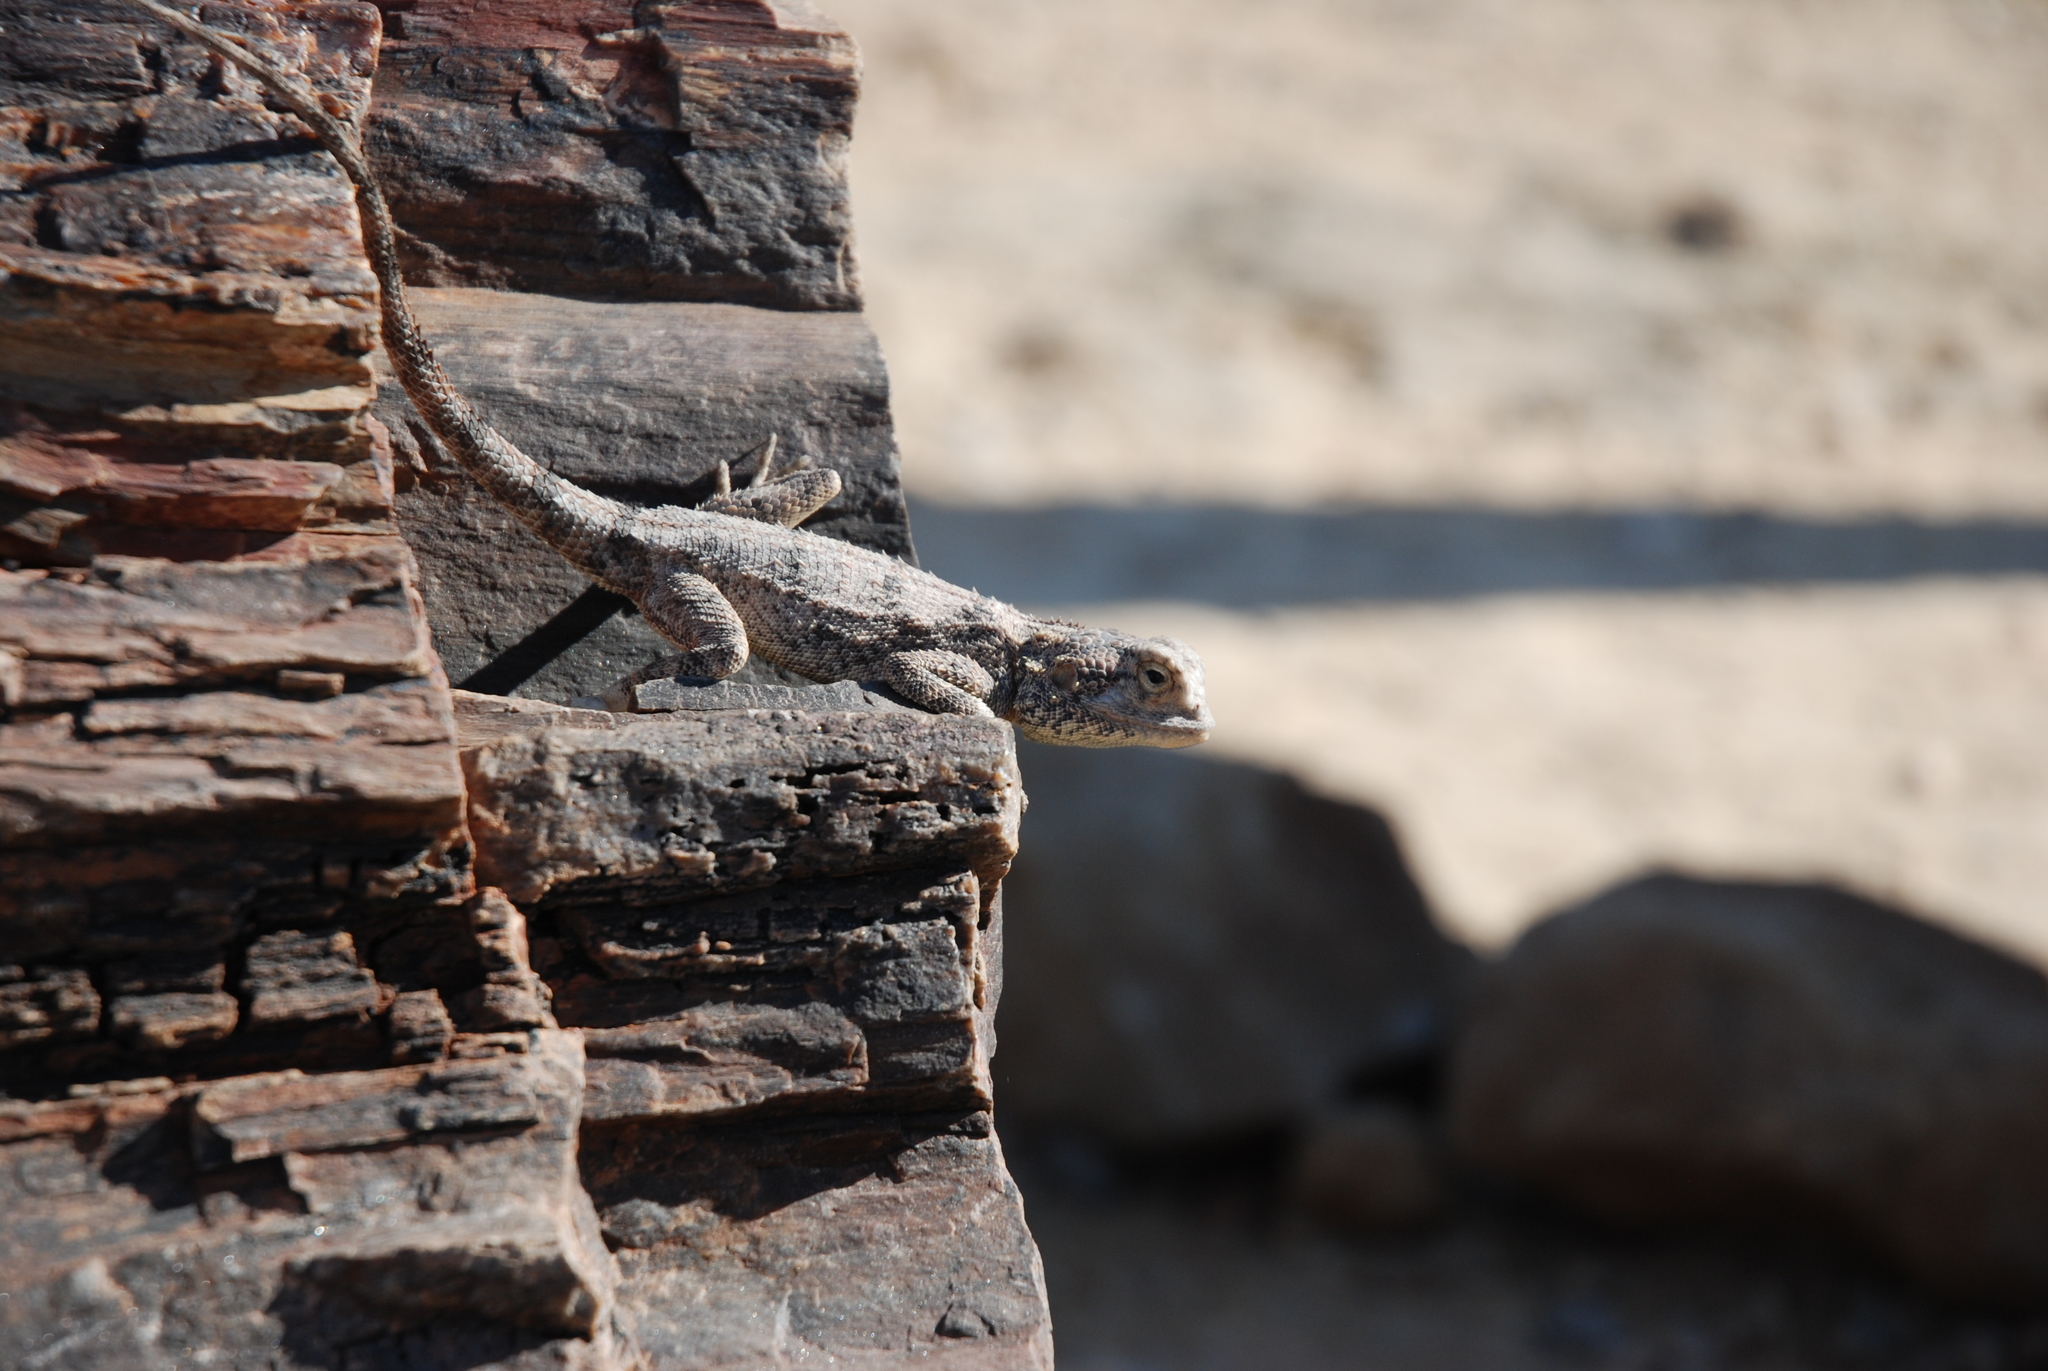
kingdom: Animalia
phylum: Chordata
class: Squamata
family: Agamidae
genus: Agama
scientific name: Agama anchietae
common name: Anchieta's agama
